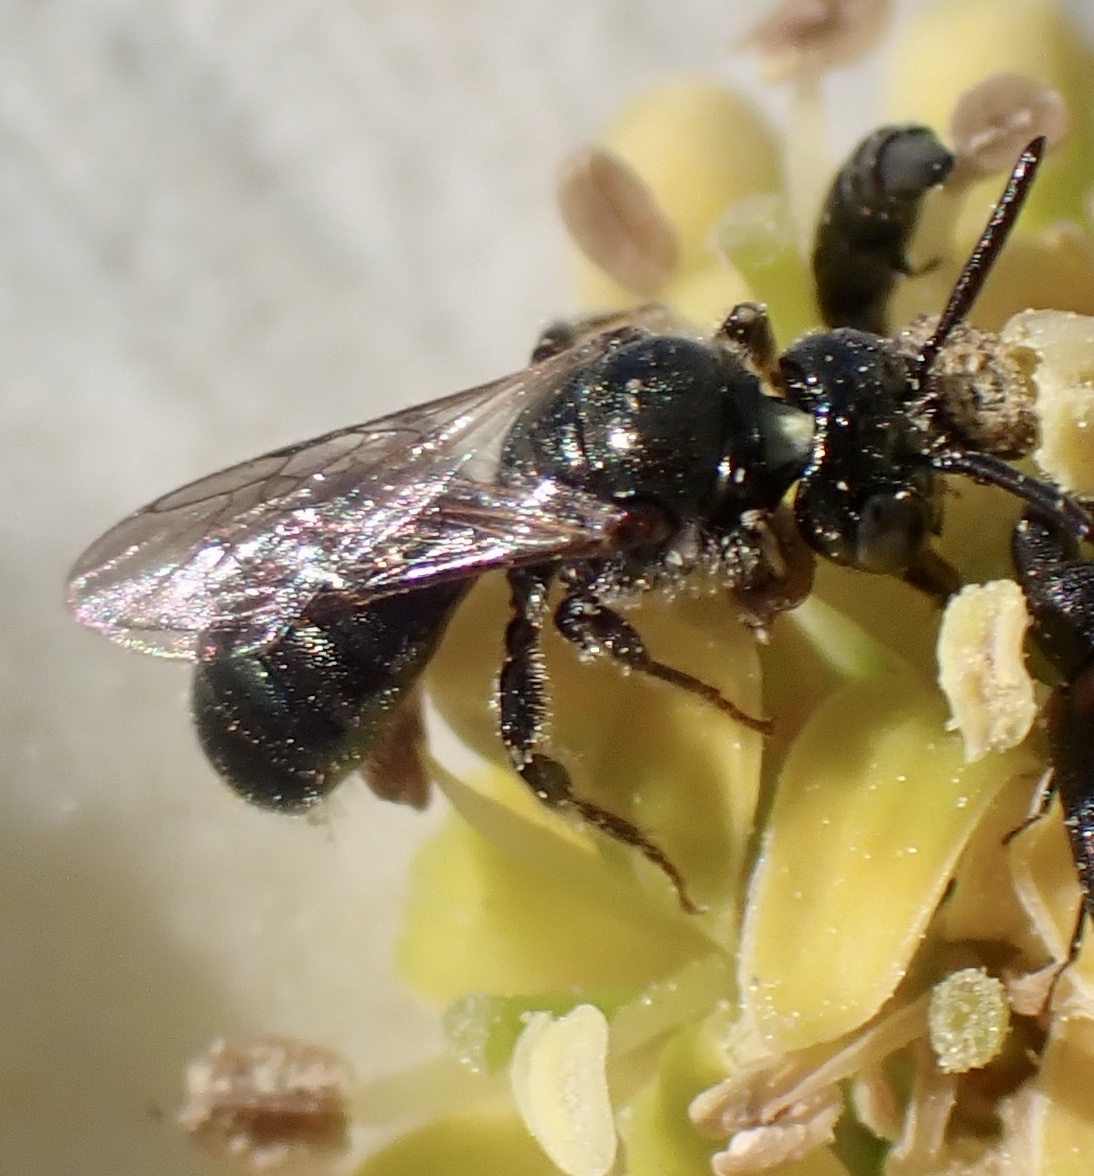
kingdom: Animalia
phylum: Arthropoda
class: Insecta
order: Hymenoptera
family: Apidae
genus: Ceratina
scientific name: Ceratina strenua
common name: Nimble carpenter bee
